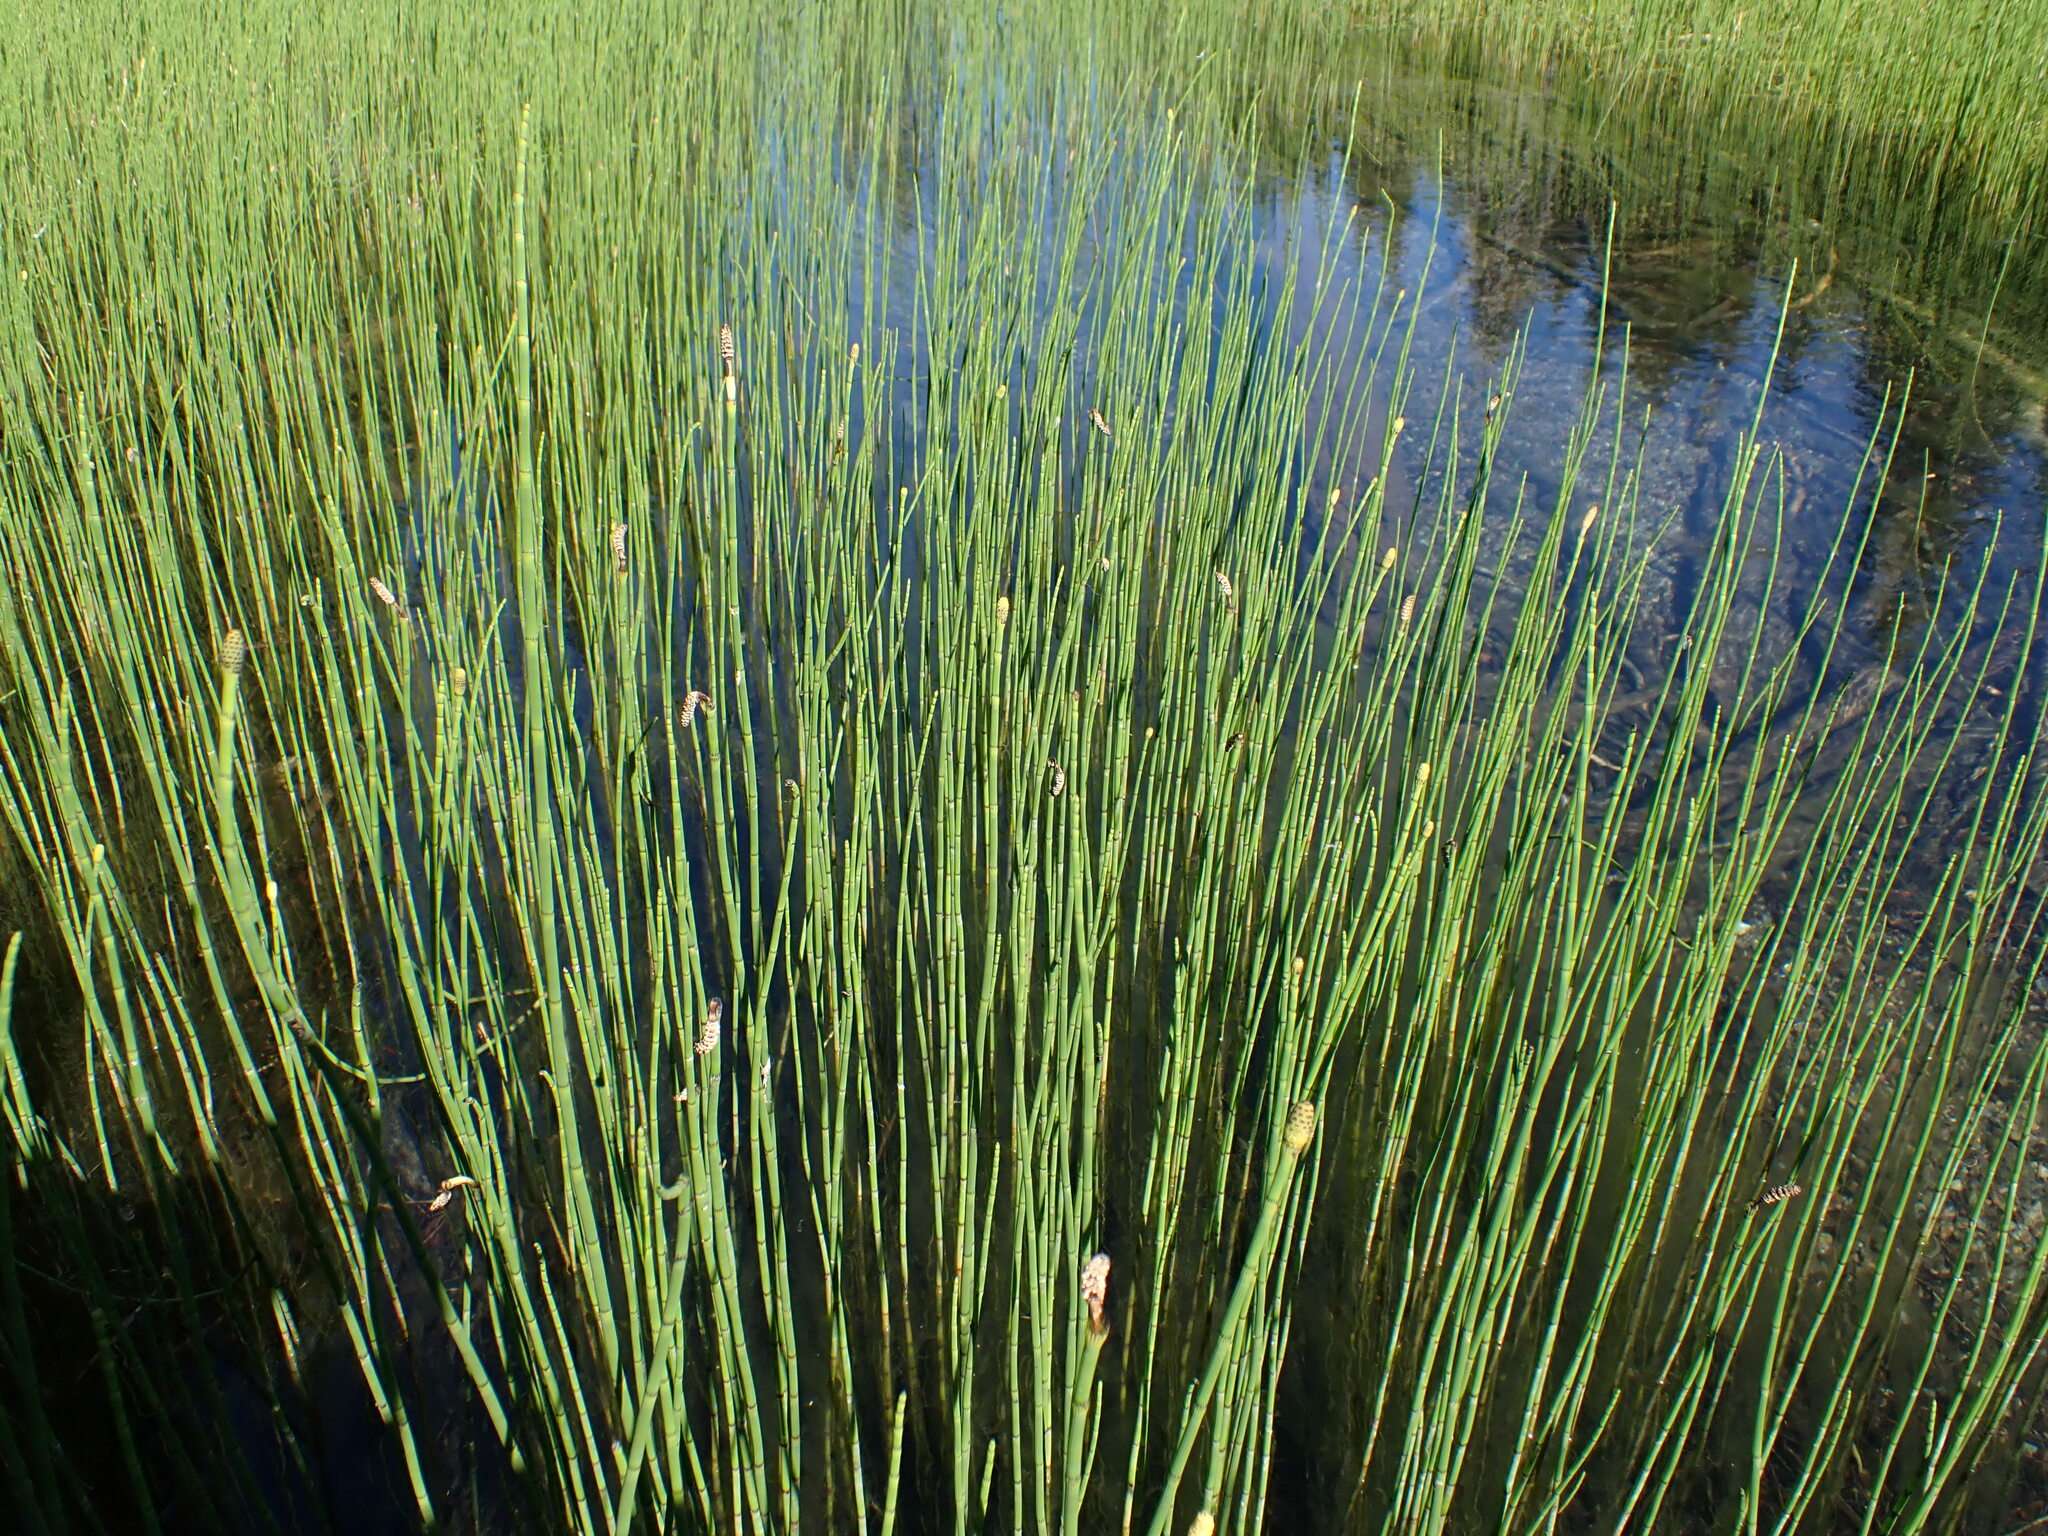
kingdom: Plantae
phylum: Tracheophyta
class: Polypodiopsida
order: Equisetales
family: Equisetaceae
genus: Equisetum
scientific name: Equisetum fluviatile
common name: Water horsetail
